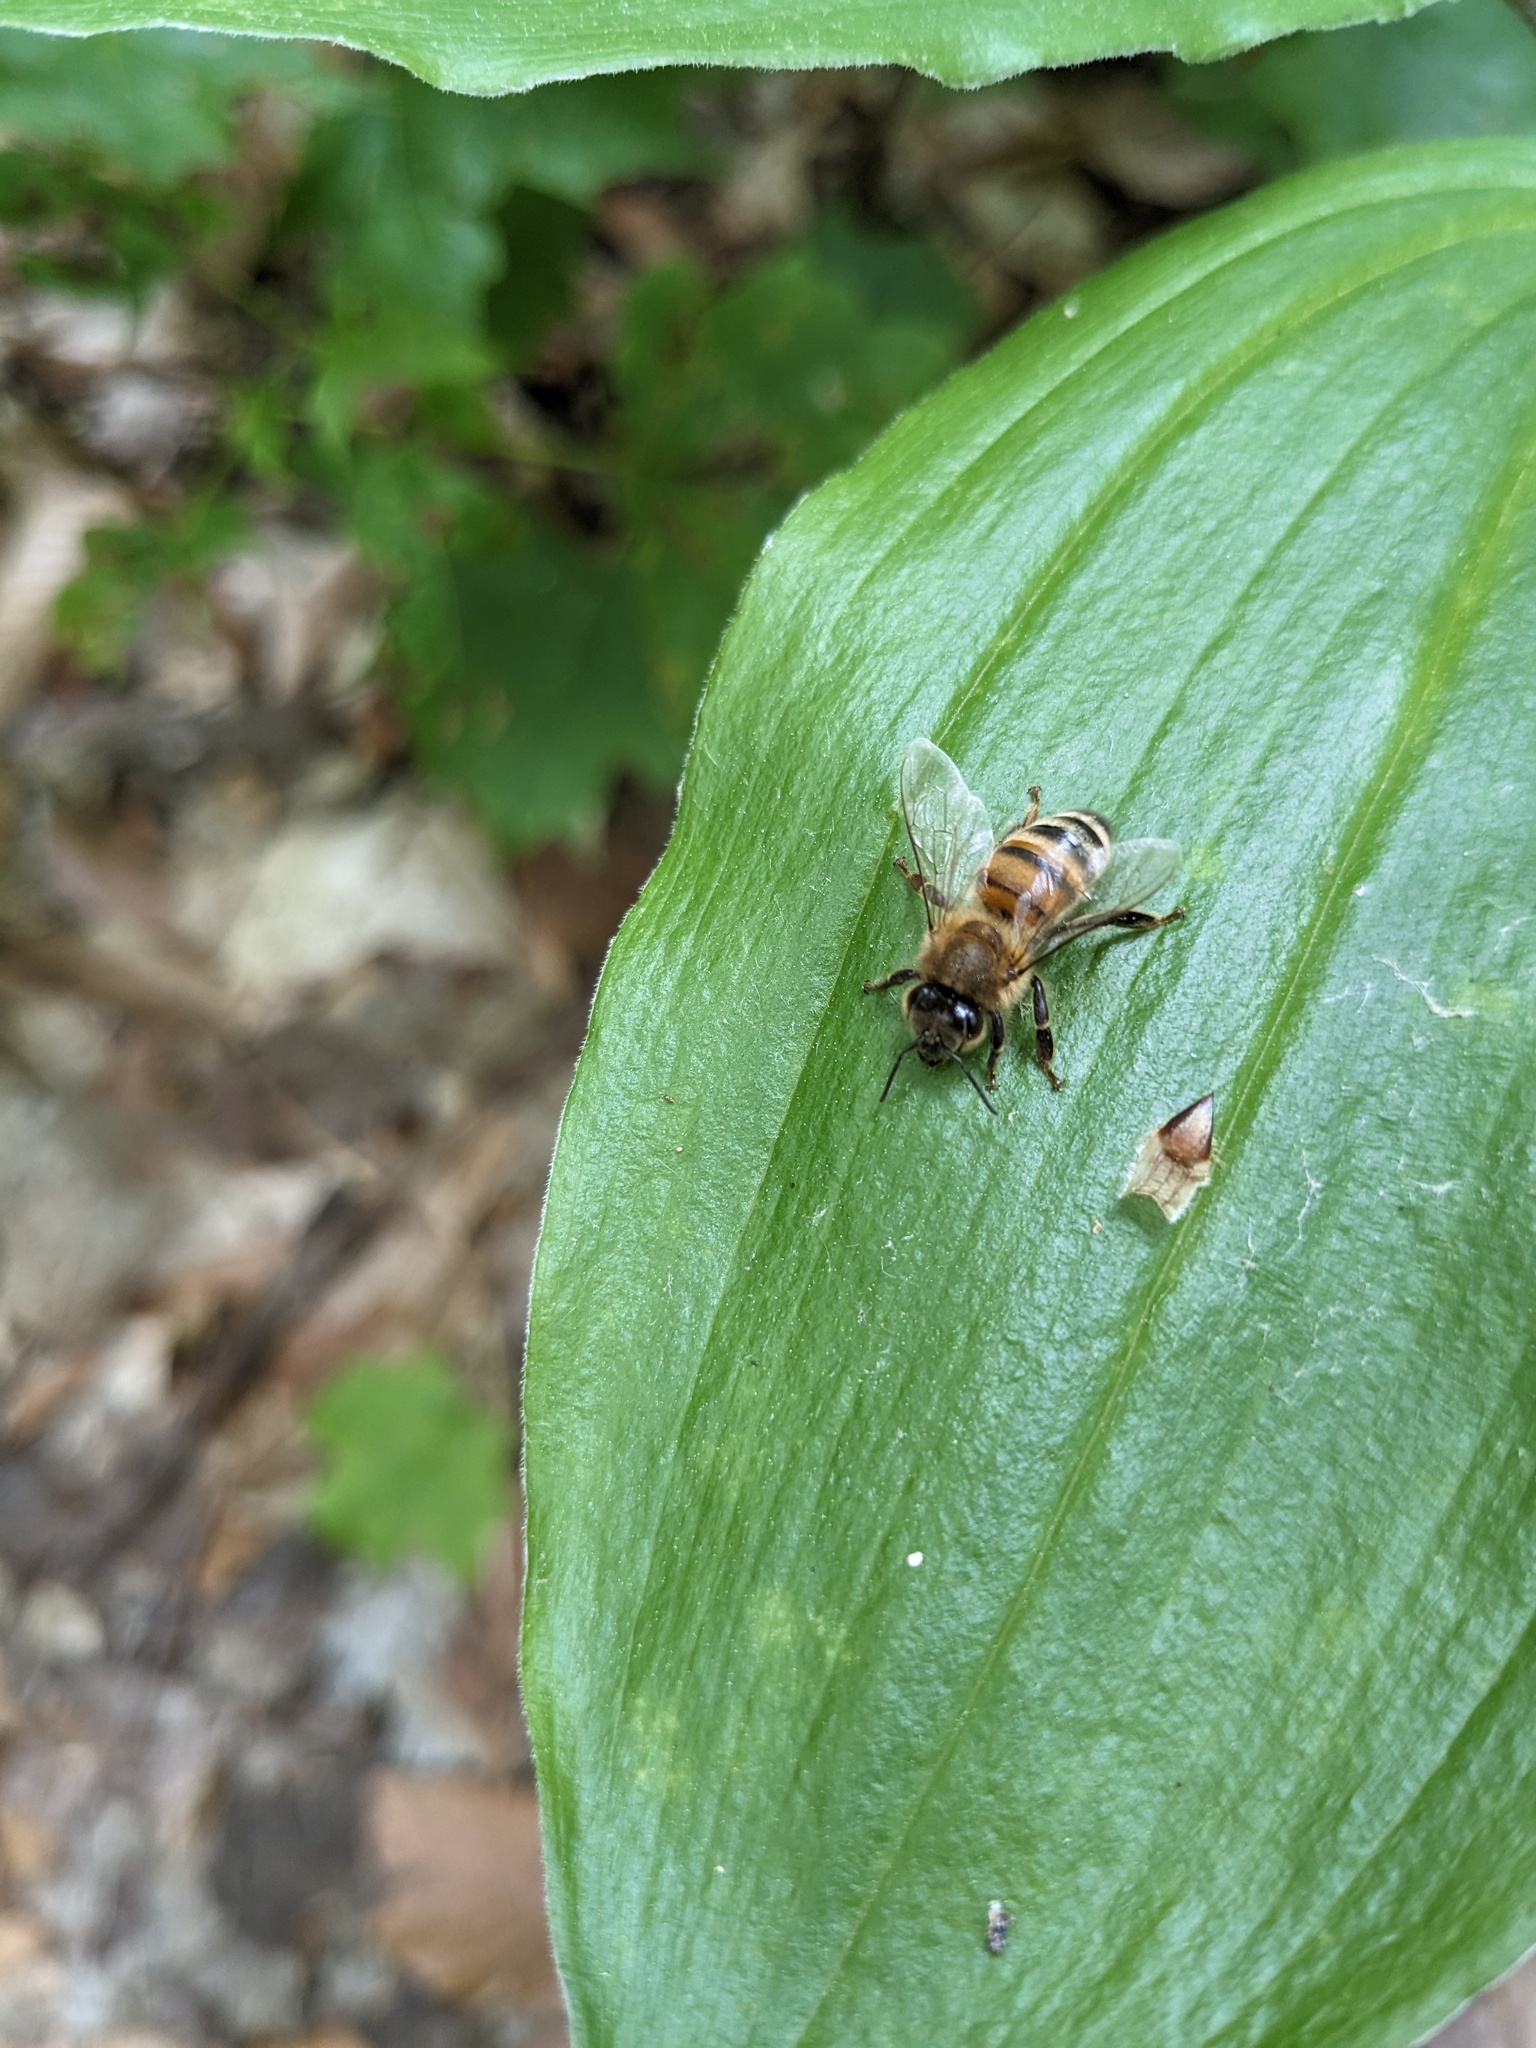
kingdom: Animalia
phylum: Arthropoda
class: Insecta
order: Hymenoptera
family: Apidae
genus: Apis
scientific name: Apis mellifera
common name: Honey bee
